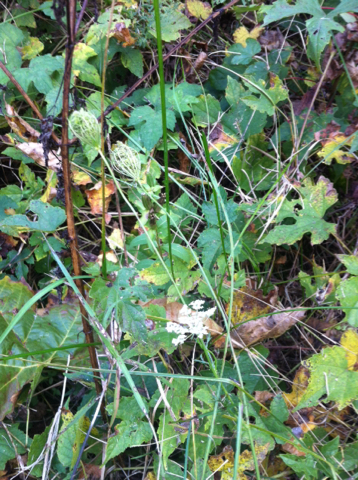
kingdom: Plantae
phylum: Tracheophyta
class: Magnoliopsida
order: Apiales
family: Apiaceae
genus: Daucus
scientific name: Daucus carota
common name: Wild carrot
